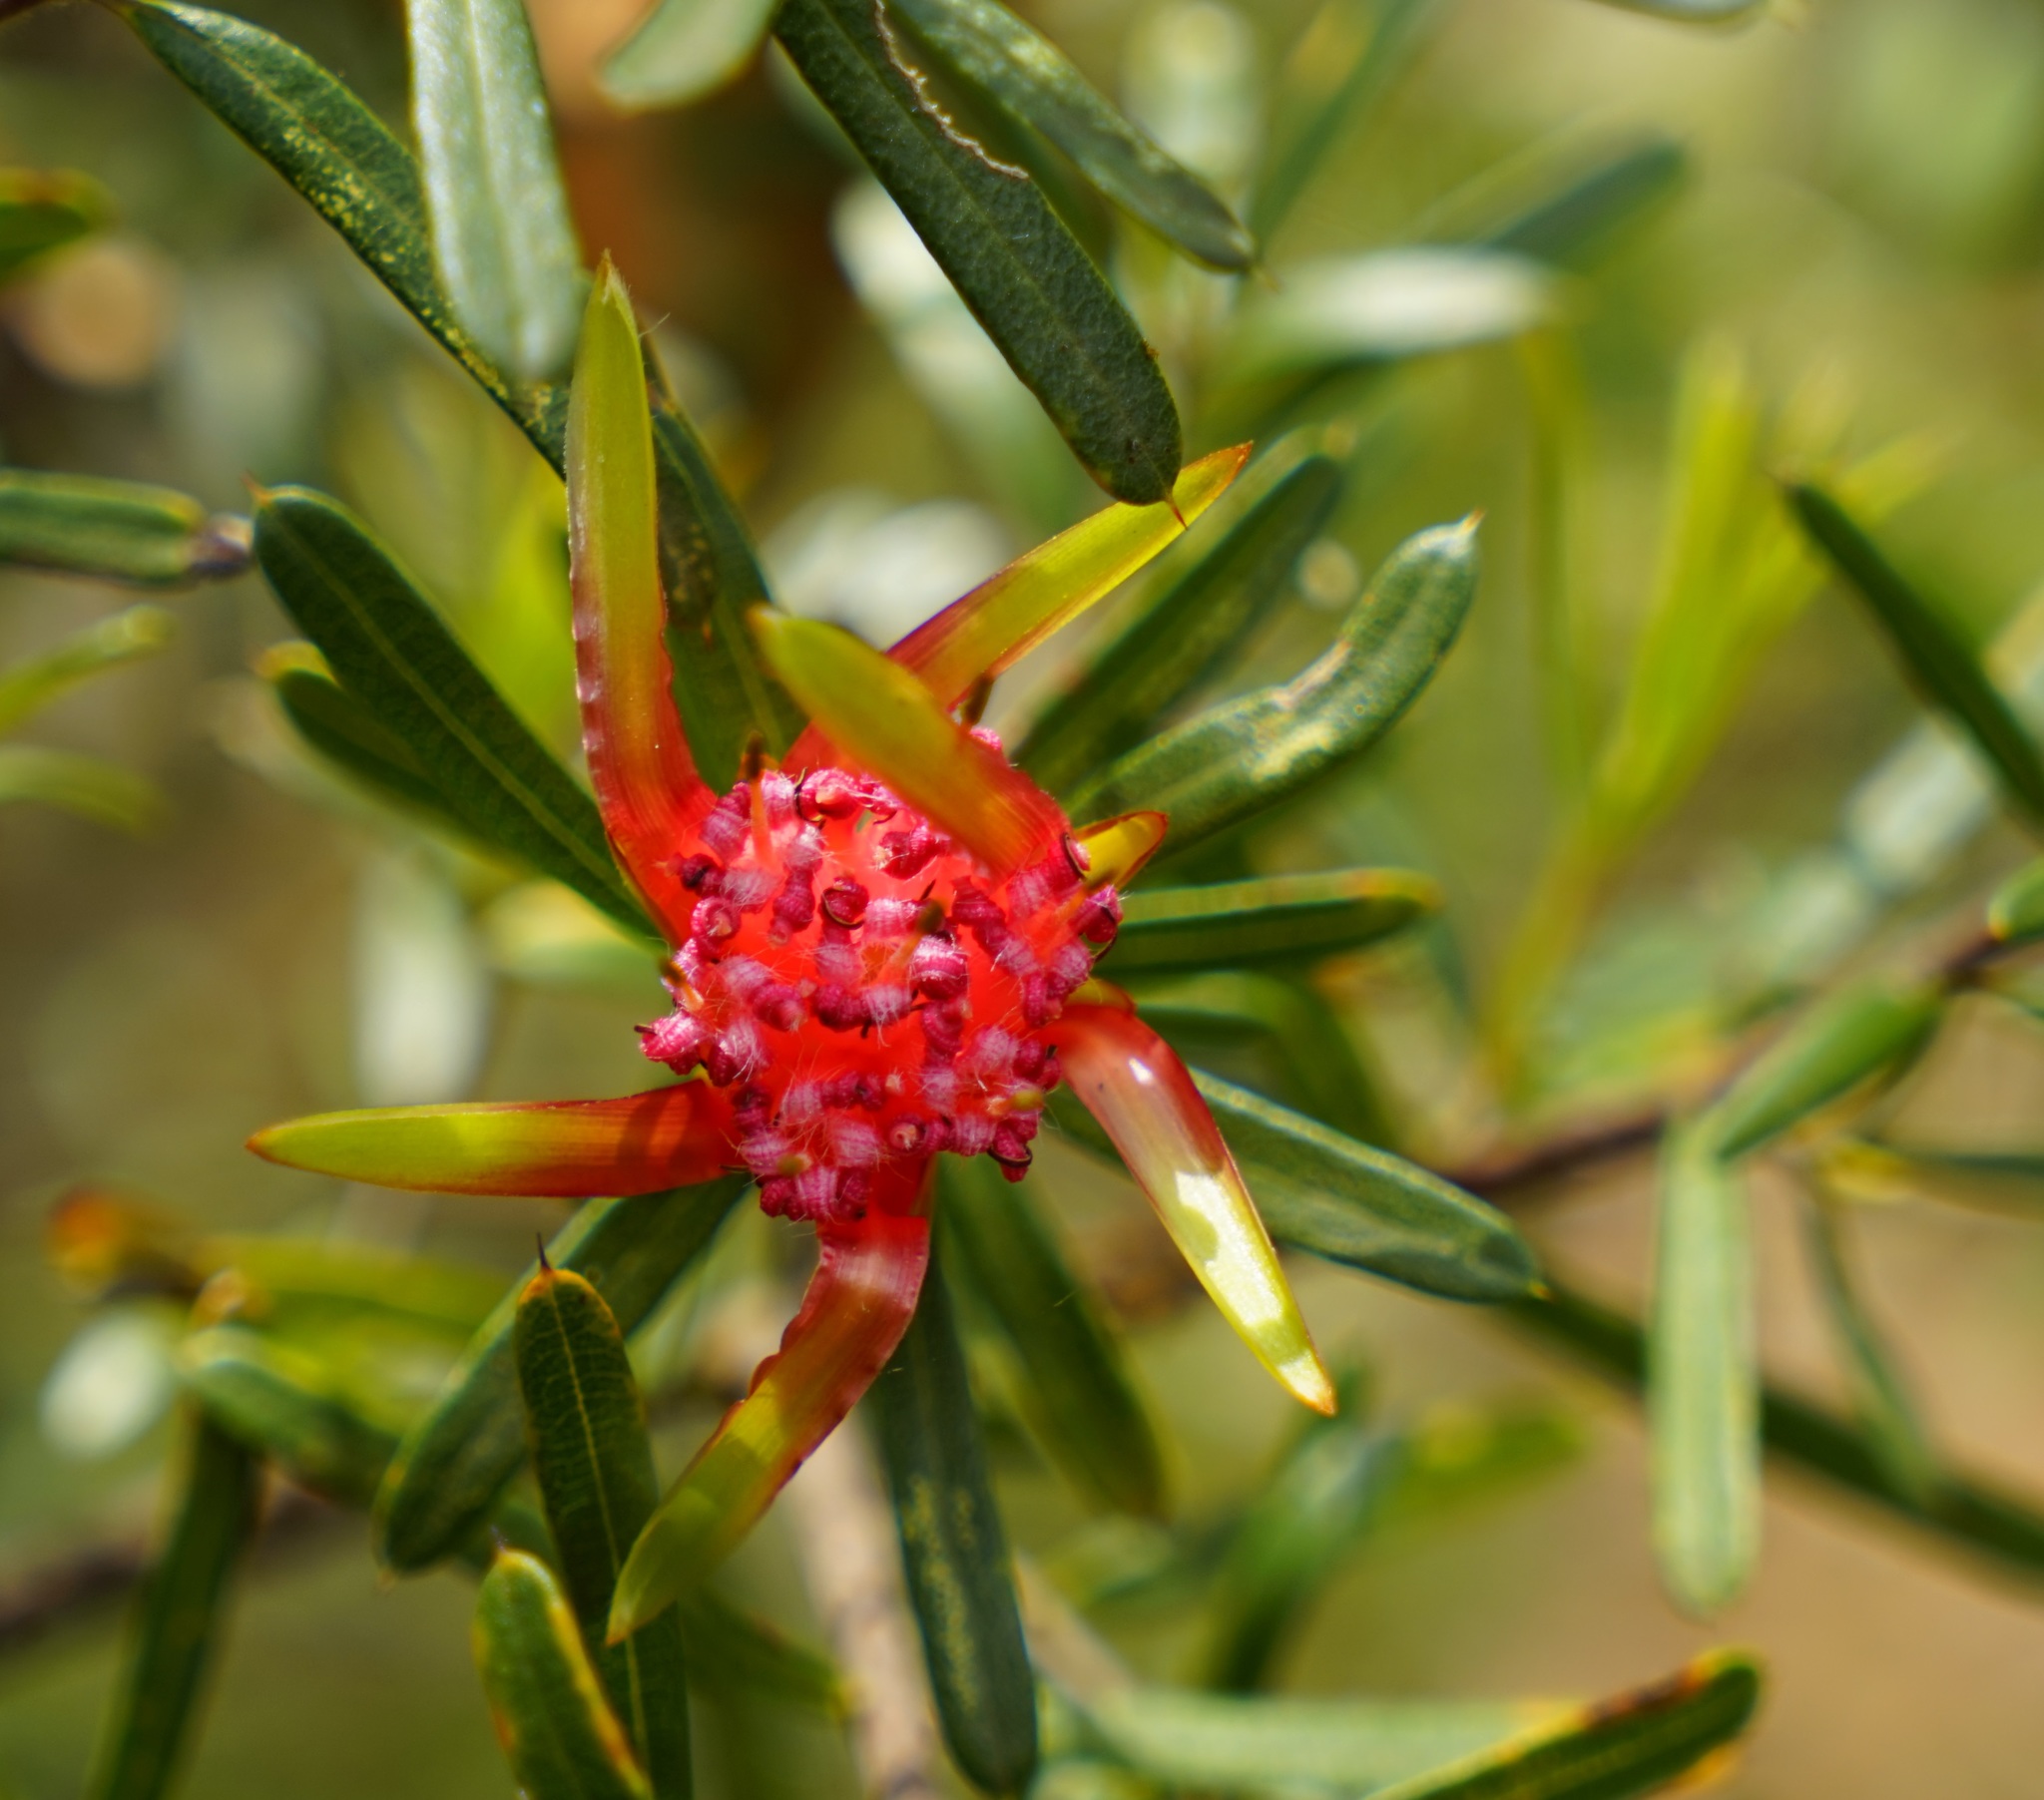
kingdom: Plantae
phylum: Tracheophyta
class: Magnoliopsida
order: Proteales
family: Proteaceae
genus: Lambertia
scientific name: Lambertia formosa
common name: Mountain-devil
